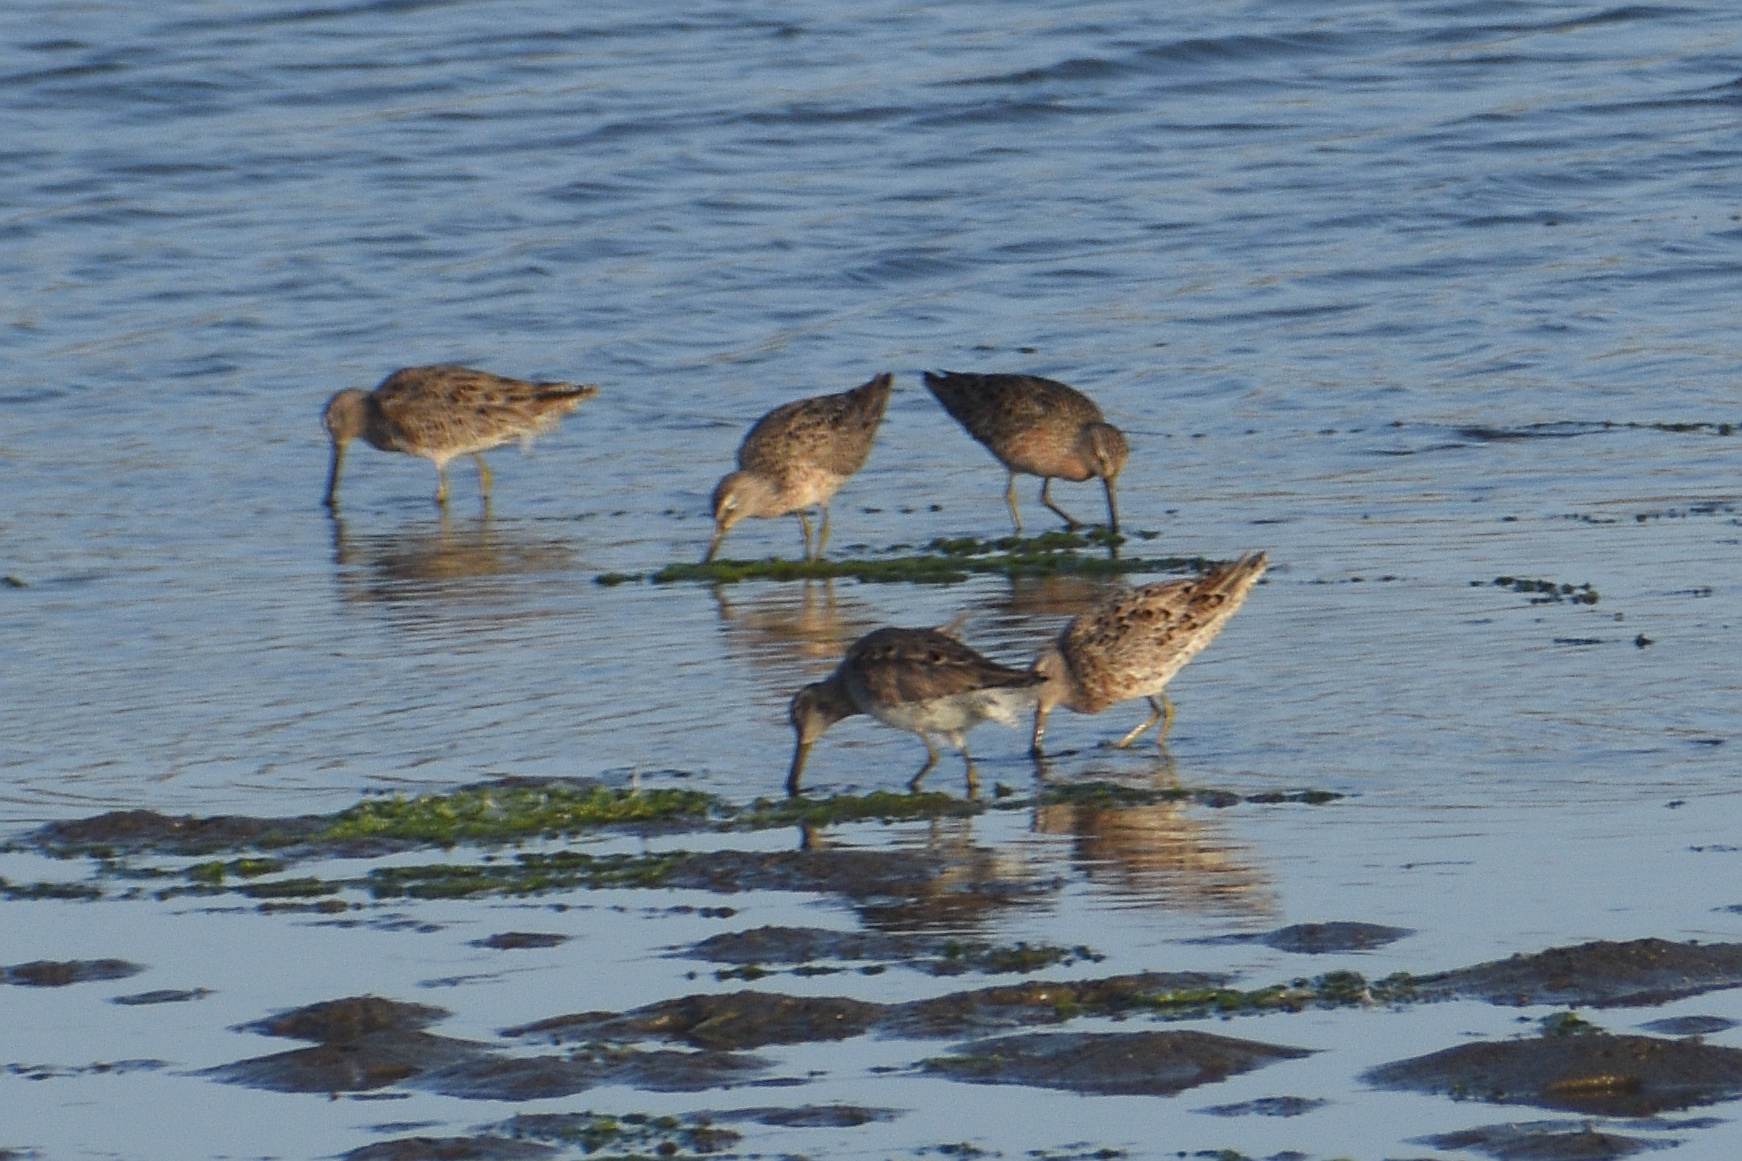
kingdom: Animalia
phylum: Chordata
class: Aves
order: Charadriiformes
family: Scolopacidae
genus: Limnodromus
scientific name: Limnodromus griseus
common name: Short-billed dowitcher
